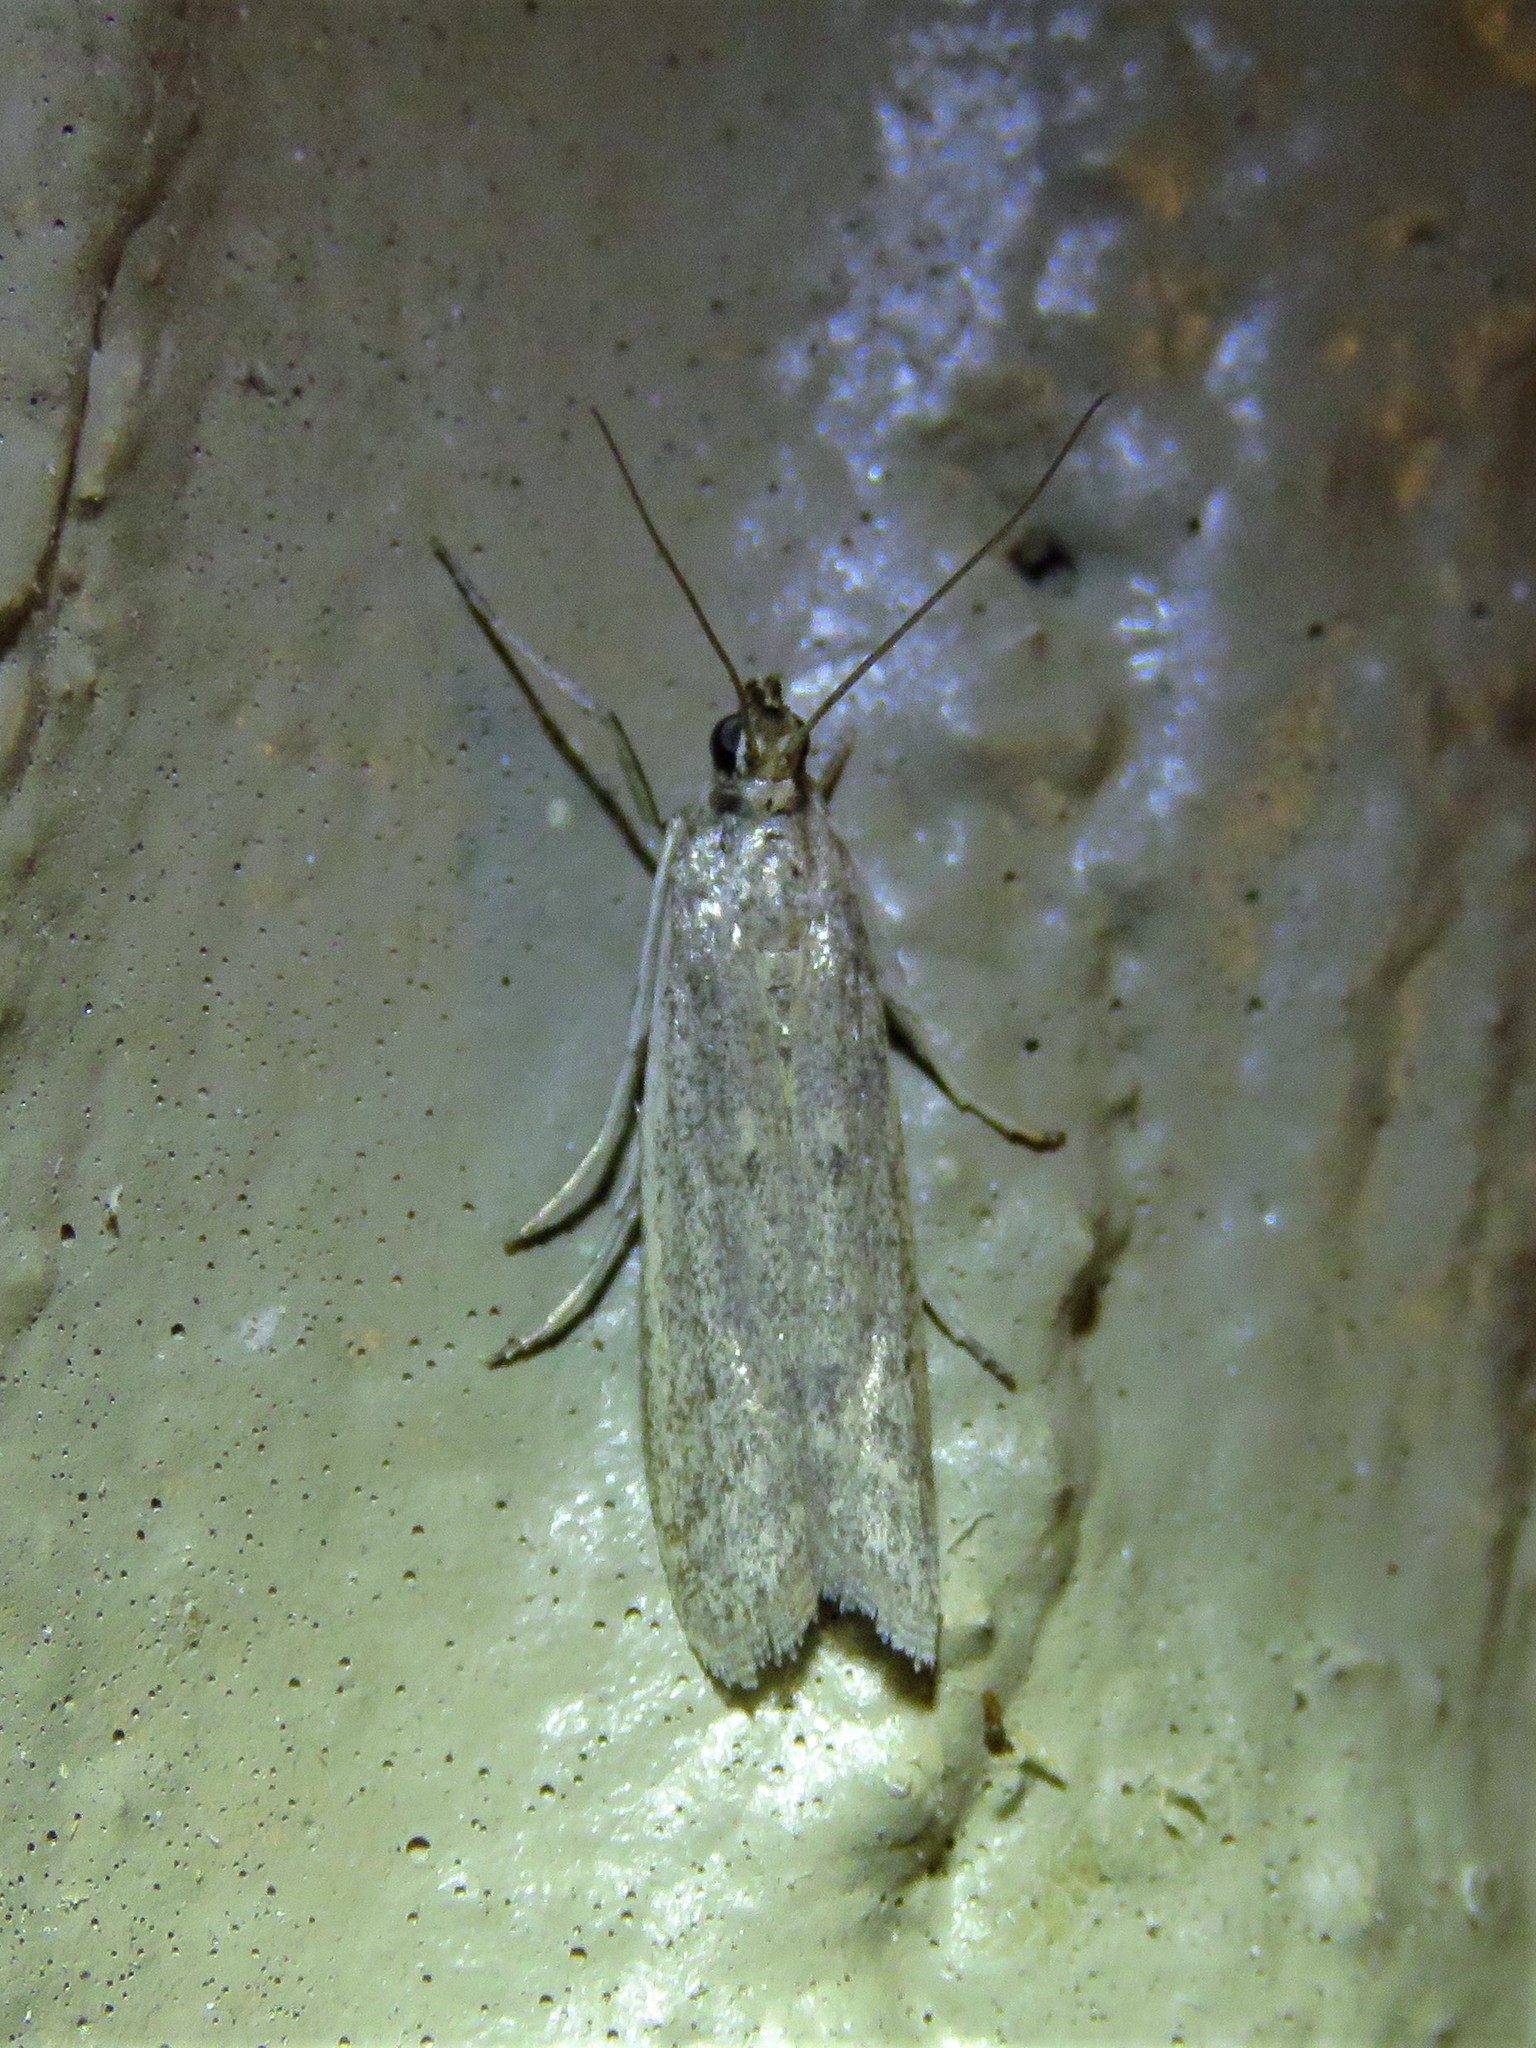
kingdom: Animalia
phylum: Arthropoda
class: Insecta
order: Lepidoptera
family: Pyralidae
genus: Homoeosoma
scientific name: Homoeosoma electella
